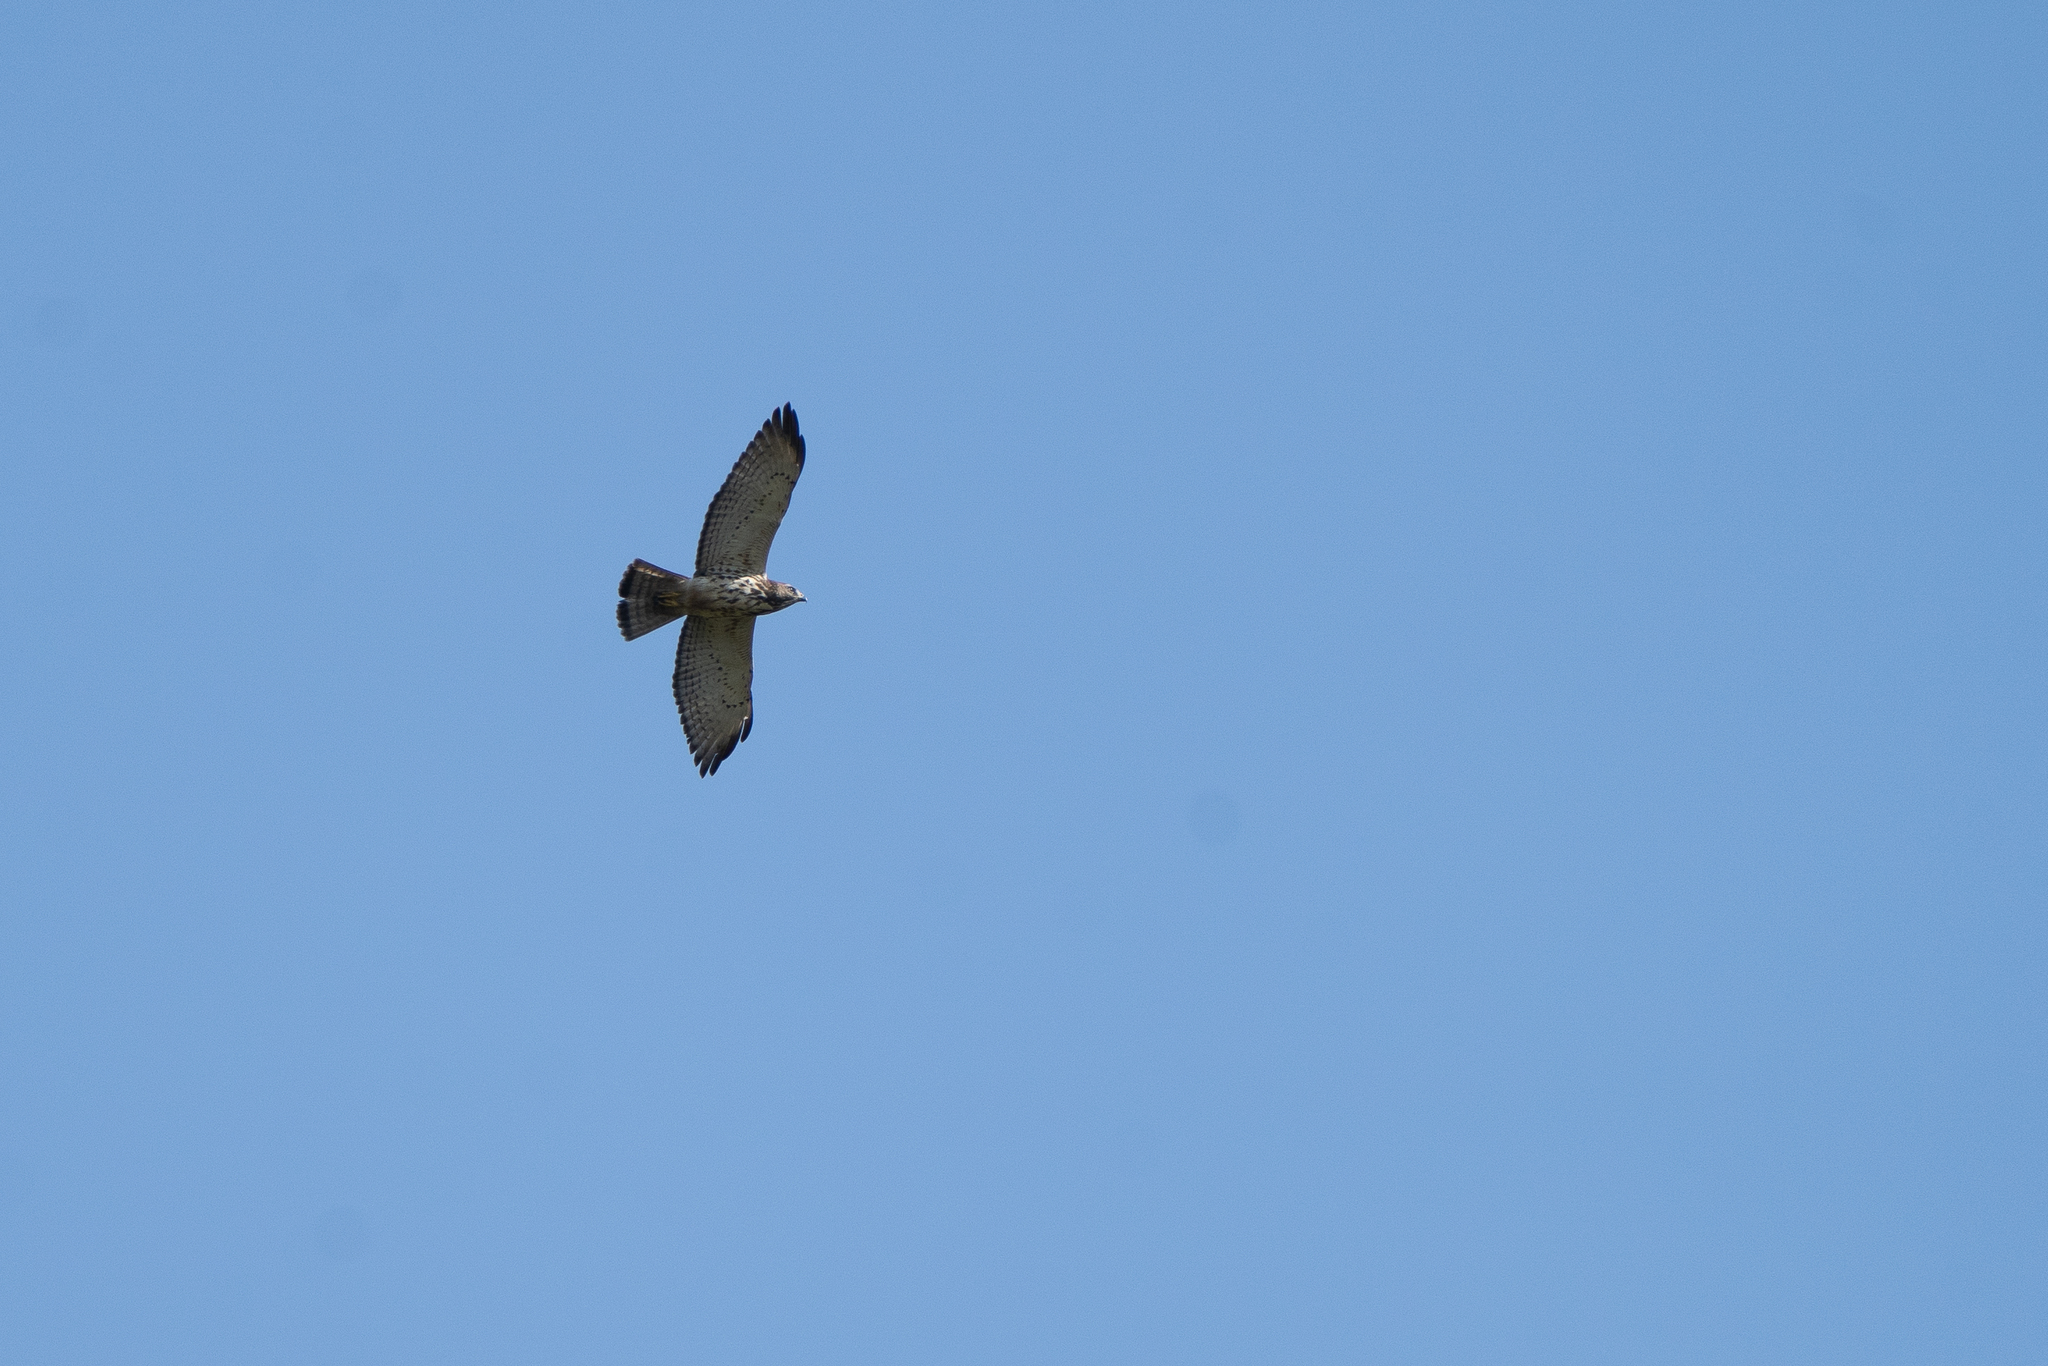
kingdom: Animalia
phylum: Chordata
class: Aves
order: Accipitriformes
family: Accipitridae
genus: Buteo
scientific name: Buteo platypterus
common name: Broad-winged hawk
